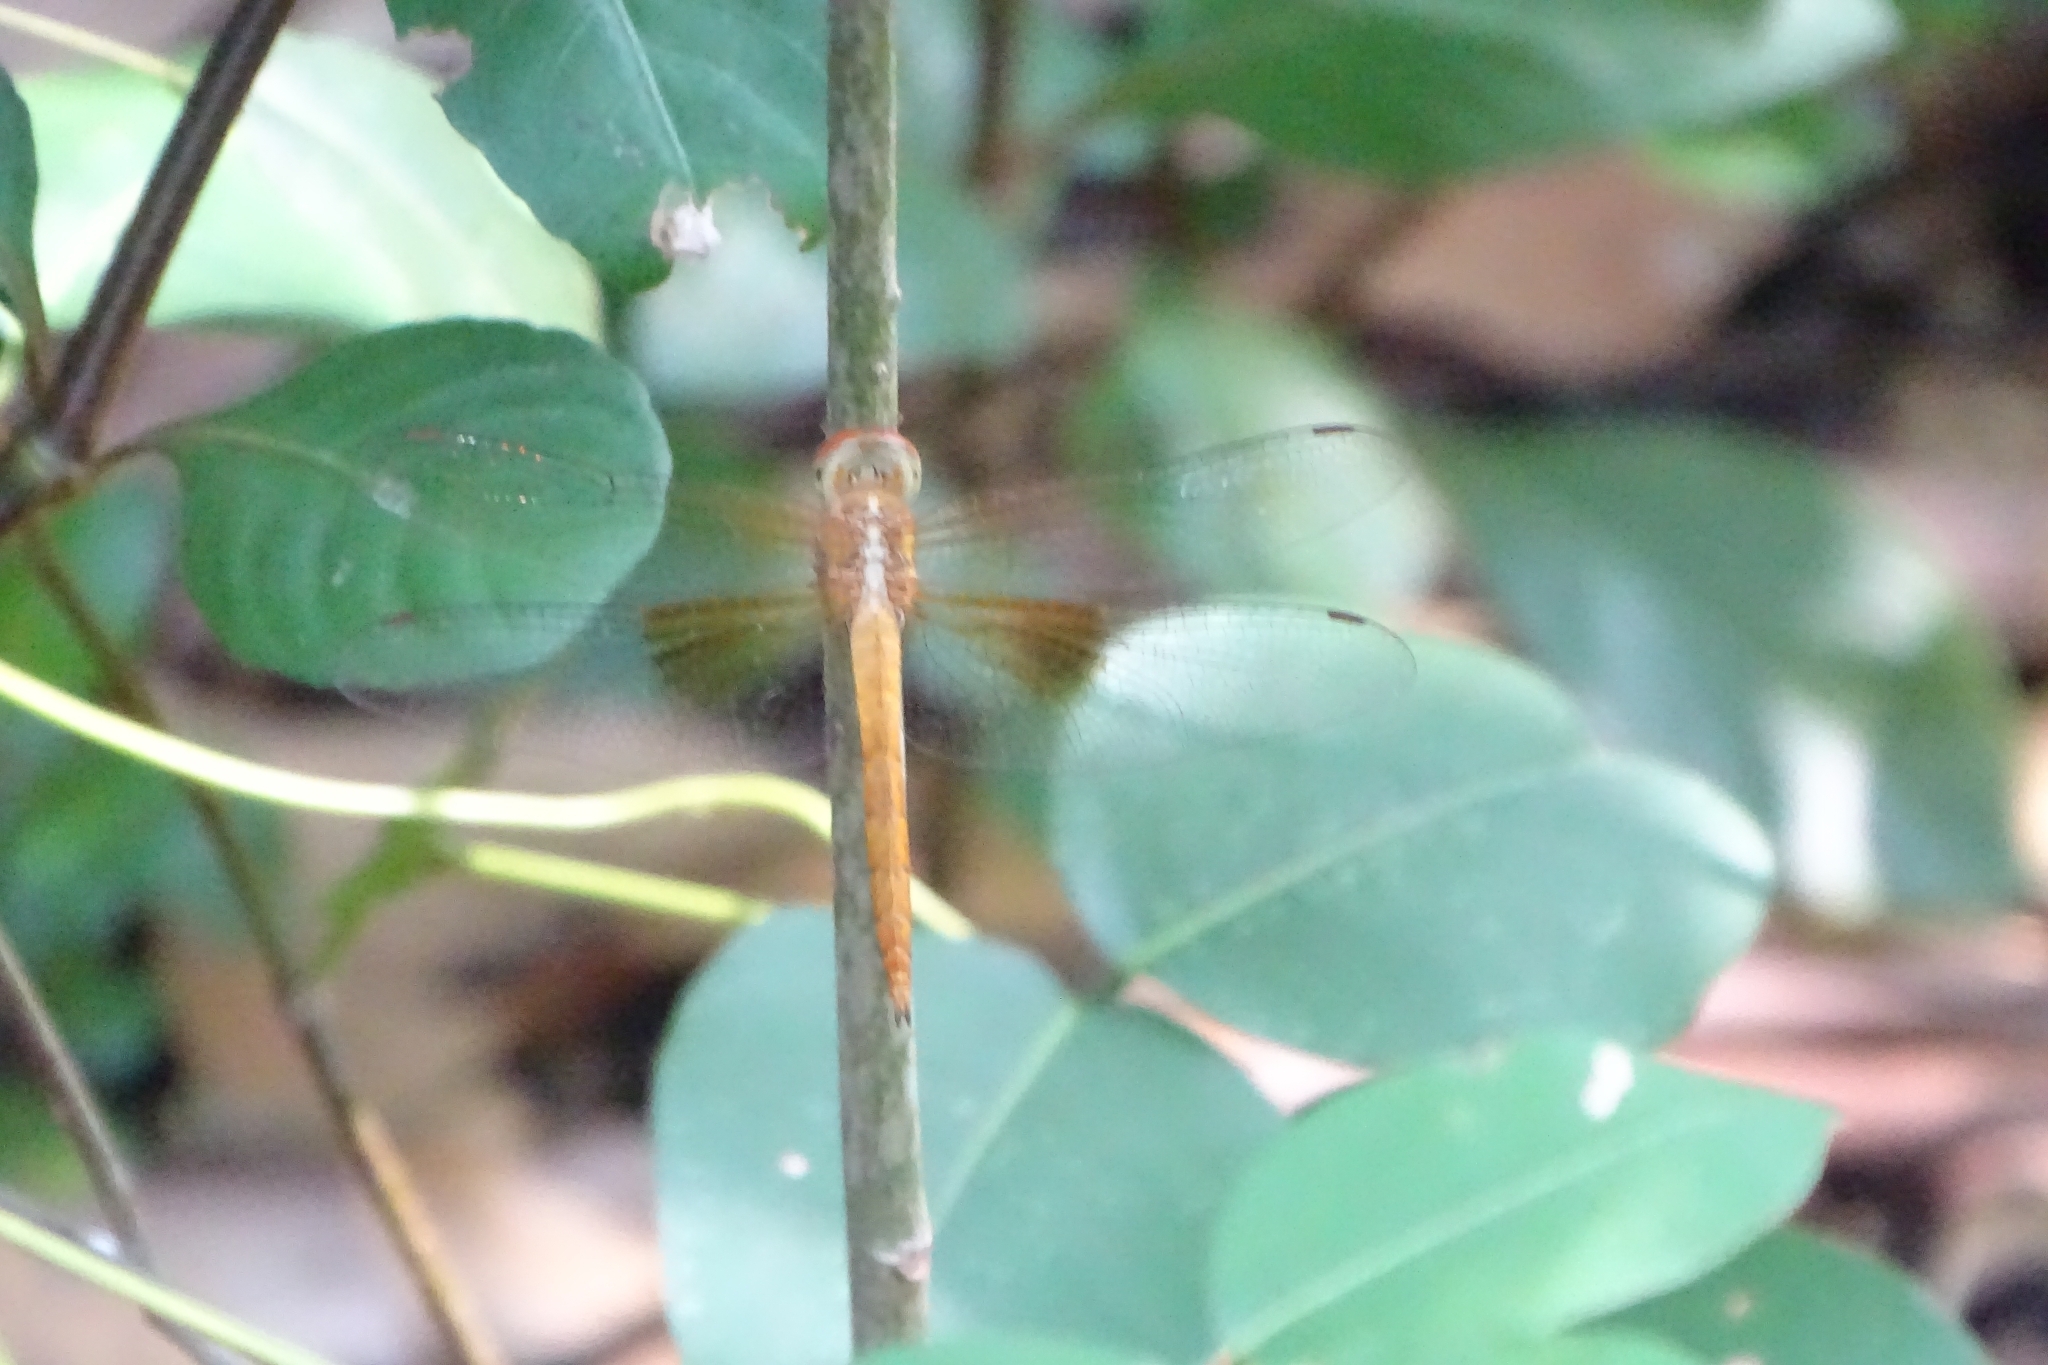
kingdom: Animalia
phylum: Arthropoda
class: Insecta
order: Odonata
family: Libellulidae
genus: Tholymis
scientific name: Tholymis tillarga
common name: Coral-tailed cloud wing
